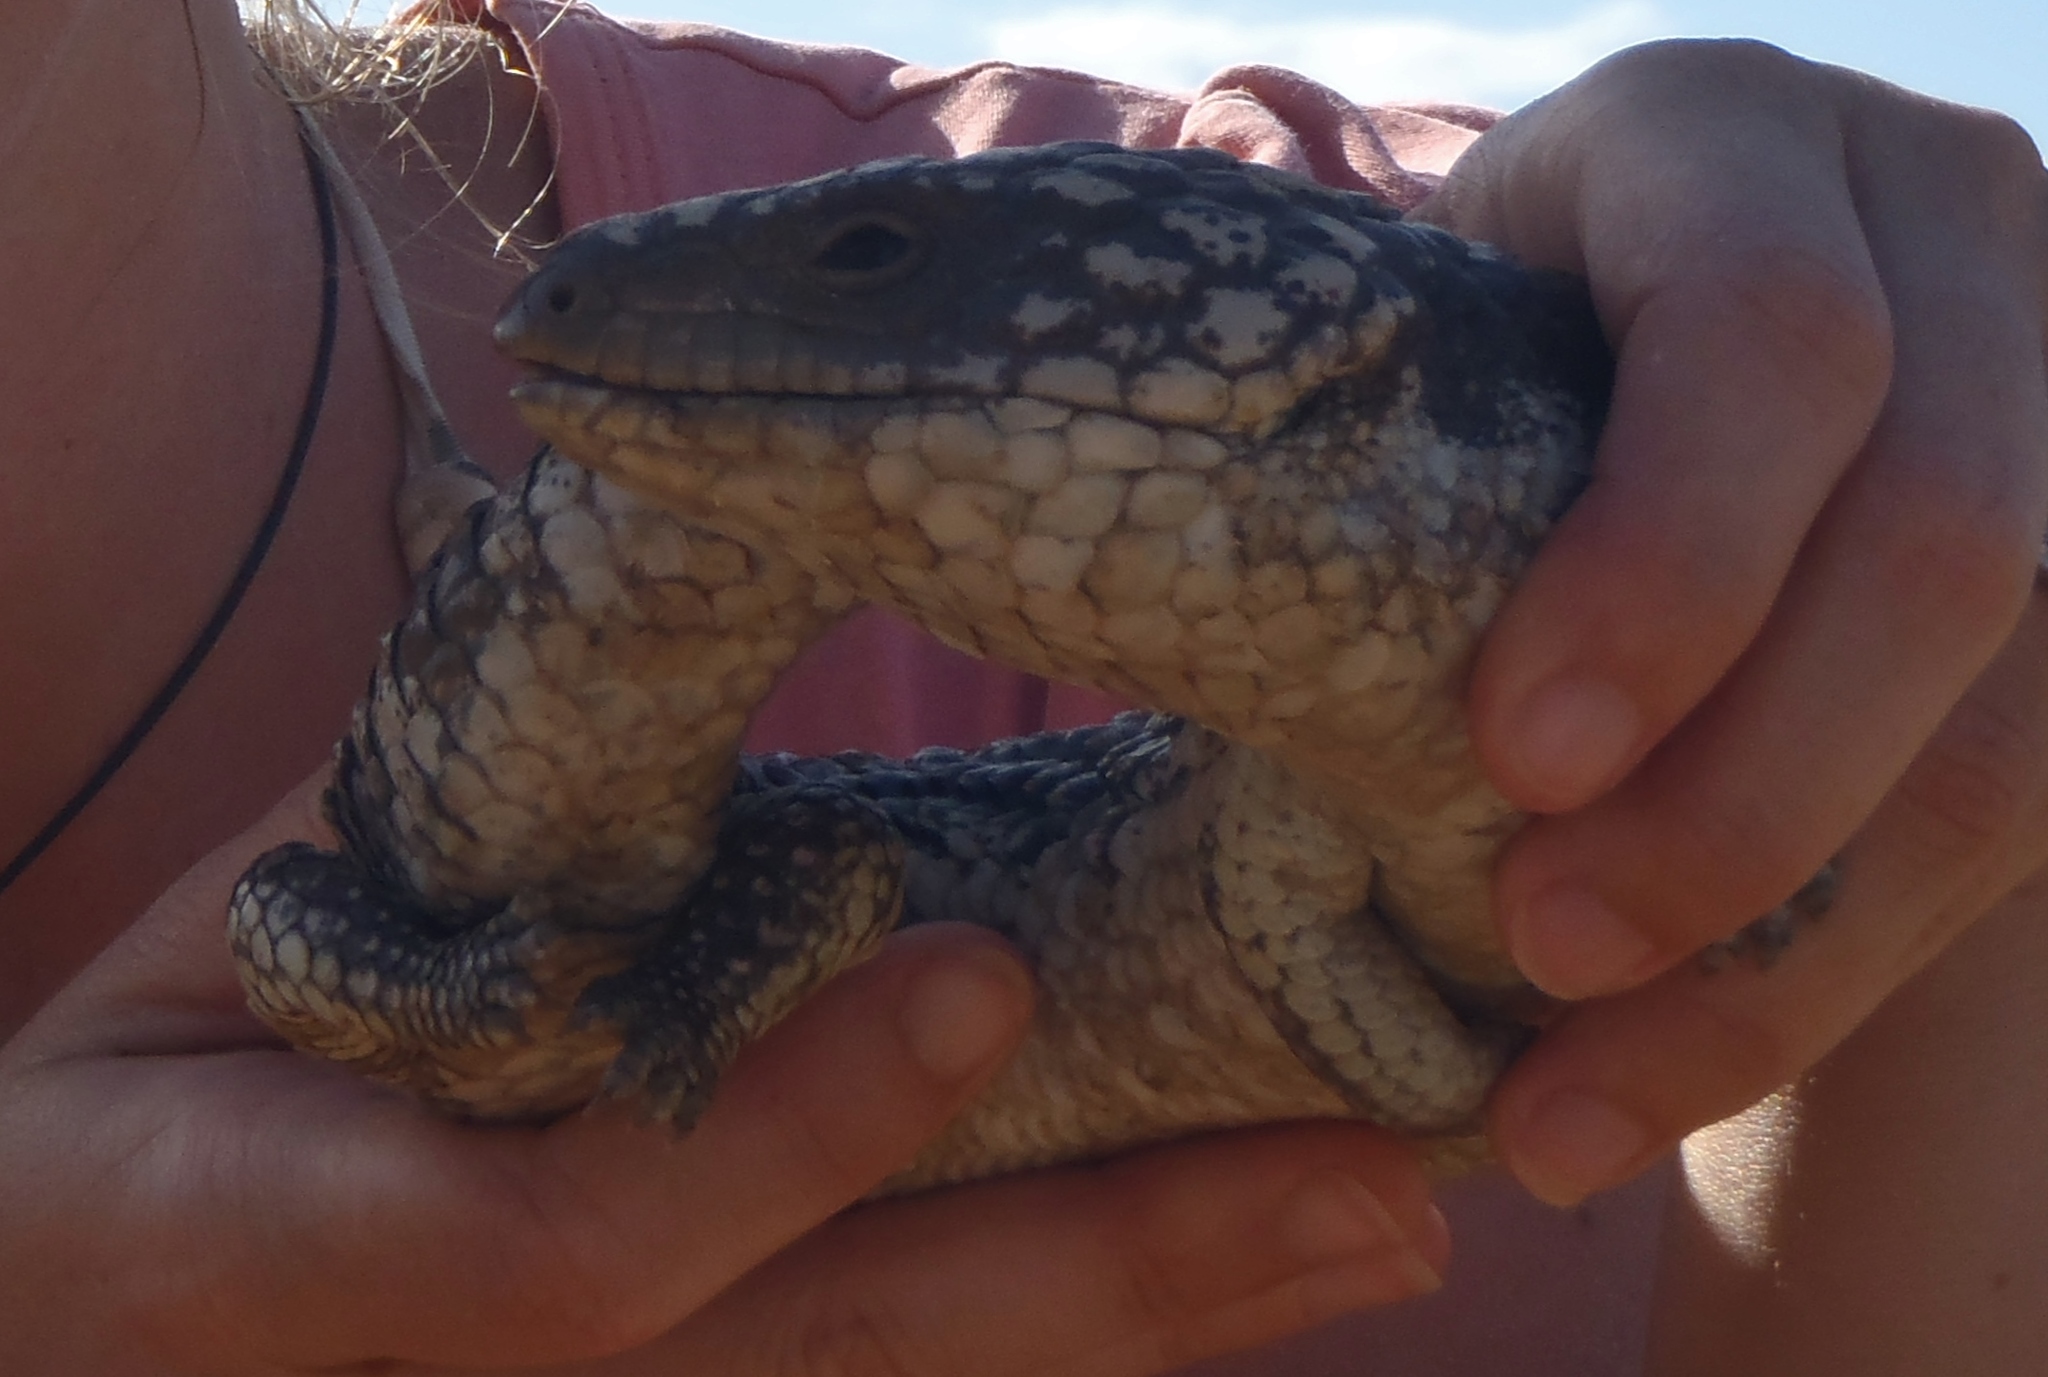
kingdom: Animalia
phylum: Chordata
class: Squamata
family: Scincidae
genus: Tiliqua
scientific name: Tiliqua rugosa
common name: Pinecone lizard
